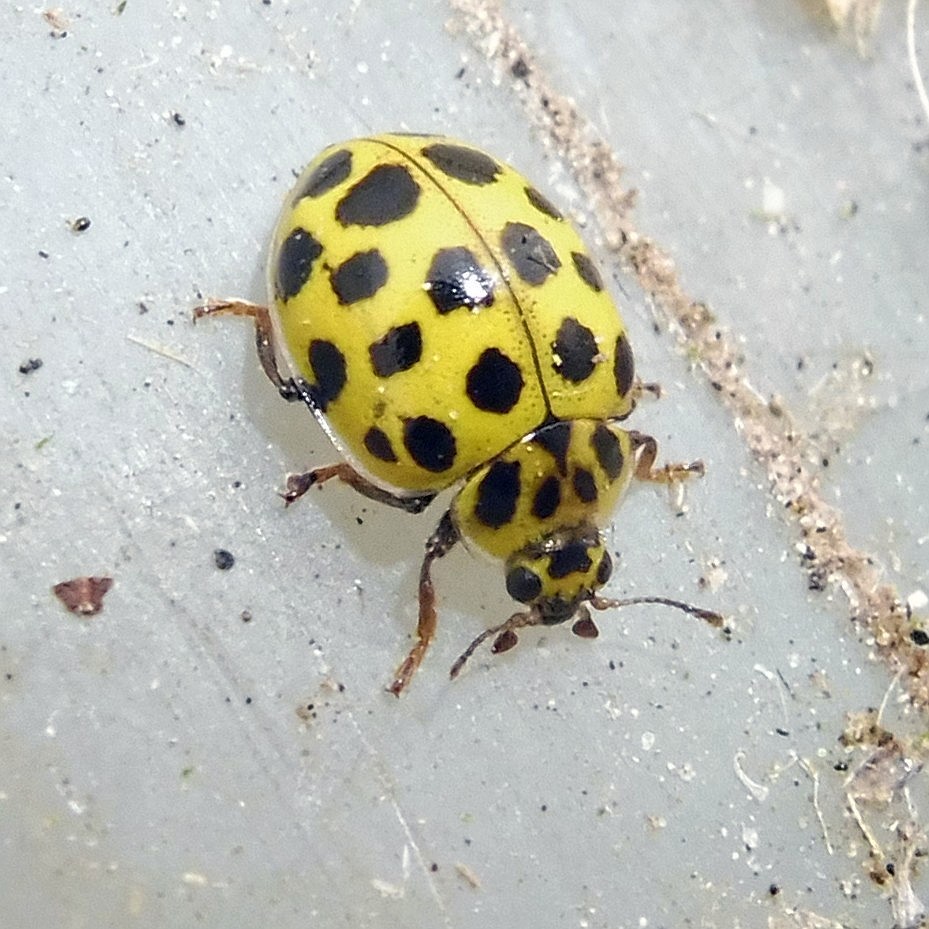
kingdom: Animalia
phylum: Arthropoda
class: Insecta
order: Coleoptera
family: Coccinellidae
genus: Psyllobora
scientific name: Psyllobora vigintiduopunctata
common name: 22-spot ladybird
